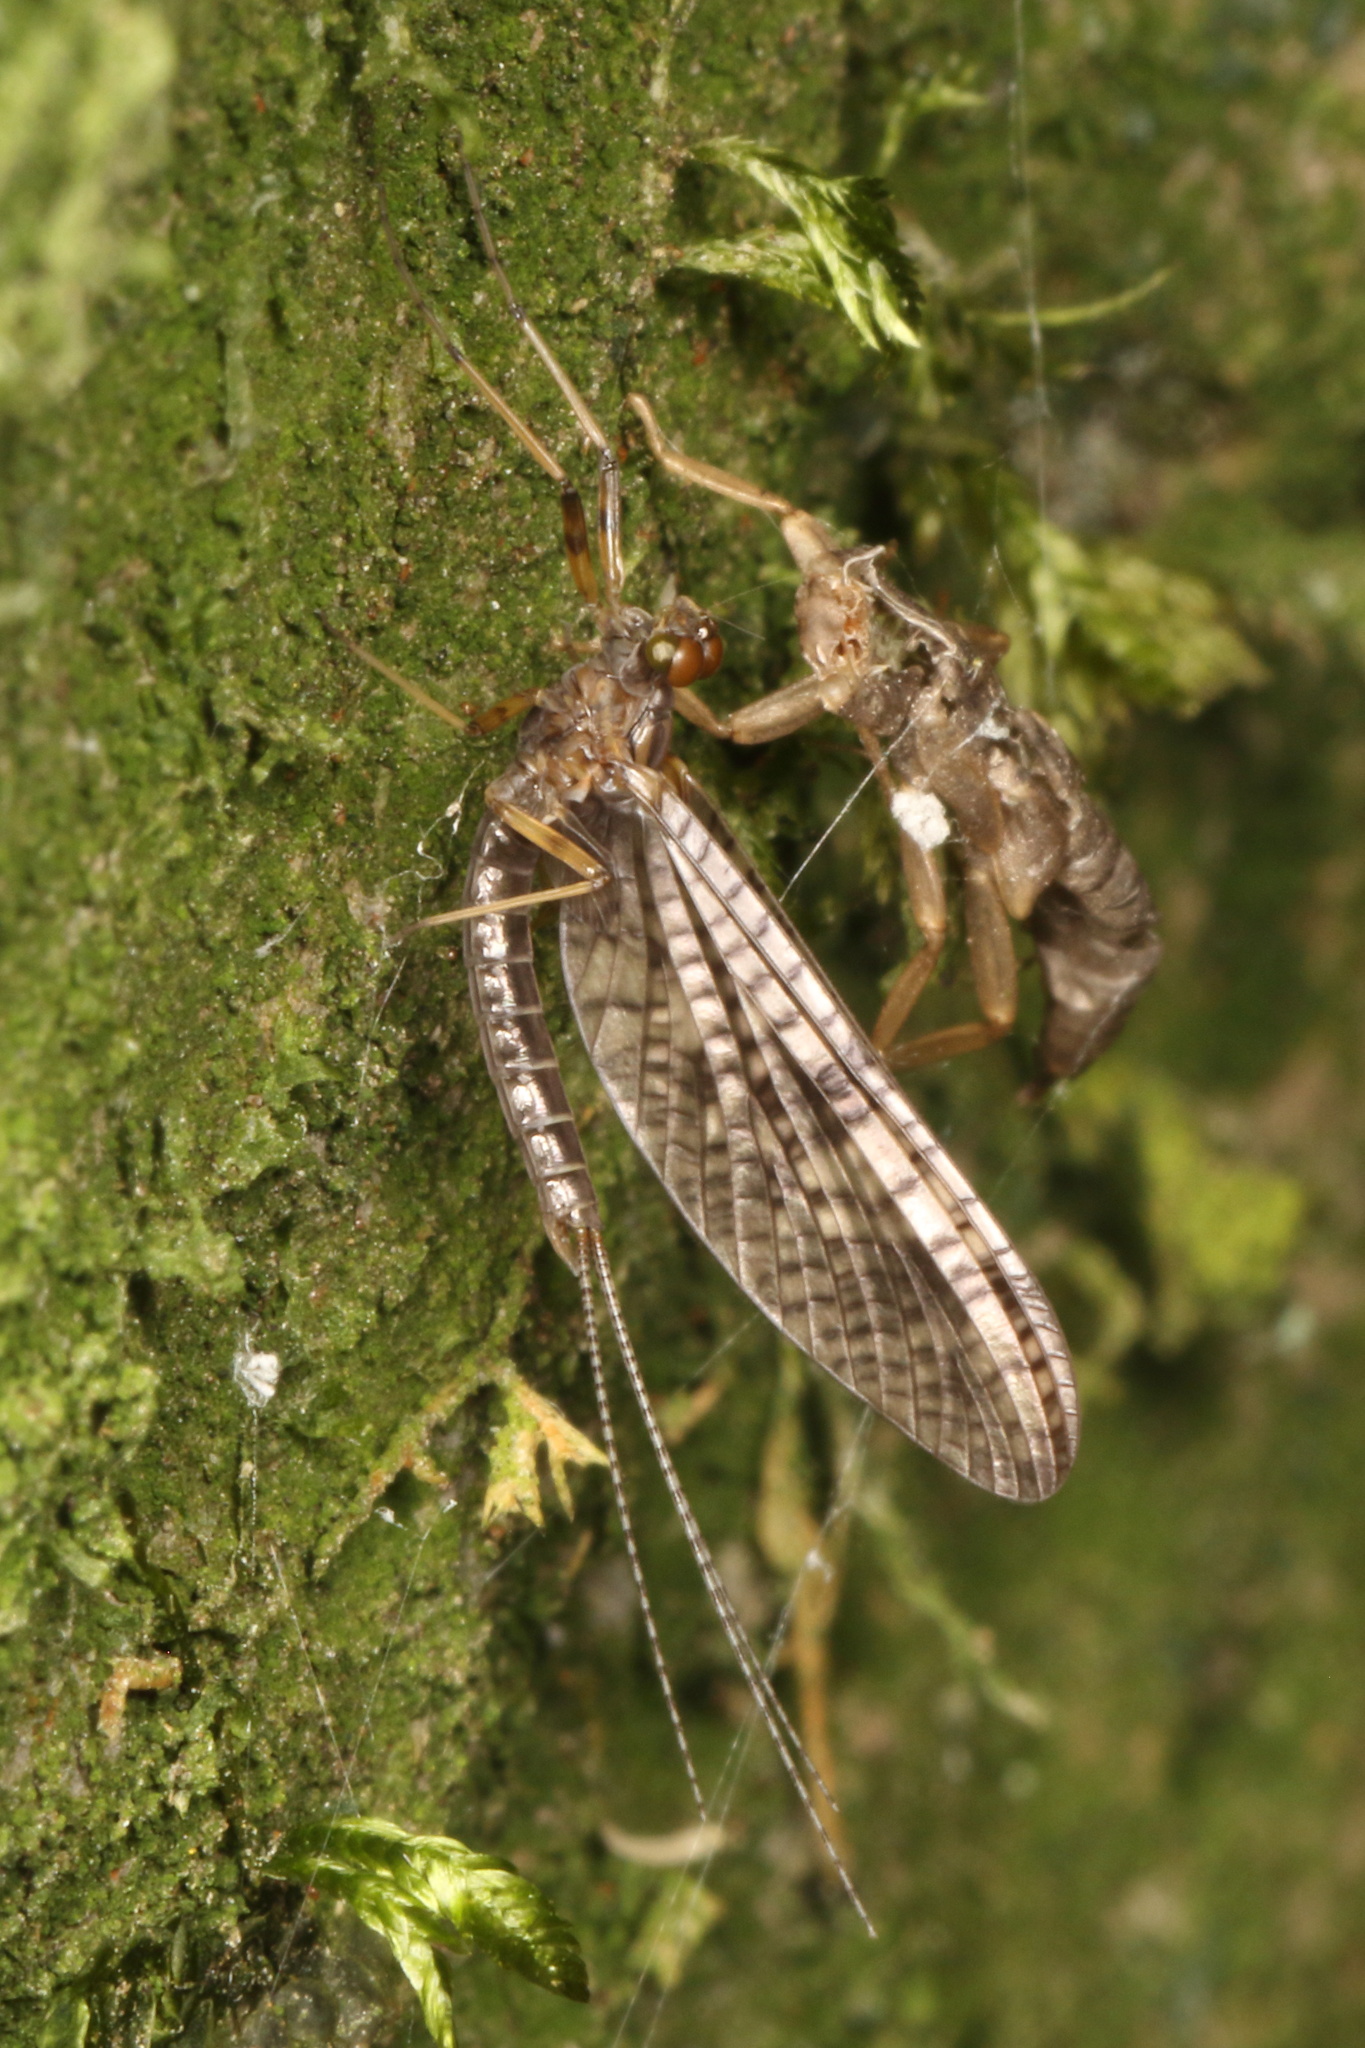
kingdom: Animalia
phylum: Arthropoda
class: Insecta
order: Ephemeroptera
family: Leptophlebiidae
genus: Neozephlebia
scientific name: Neozephlebia scita
